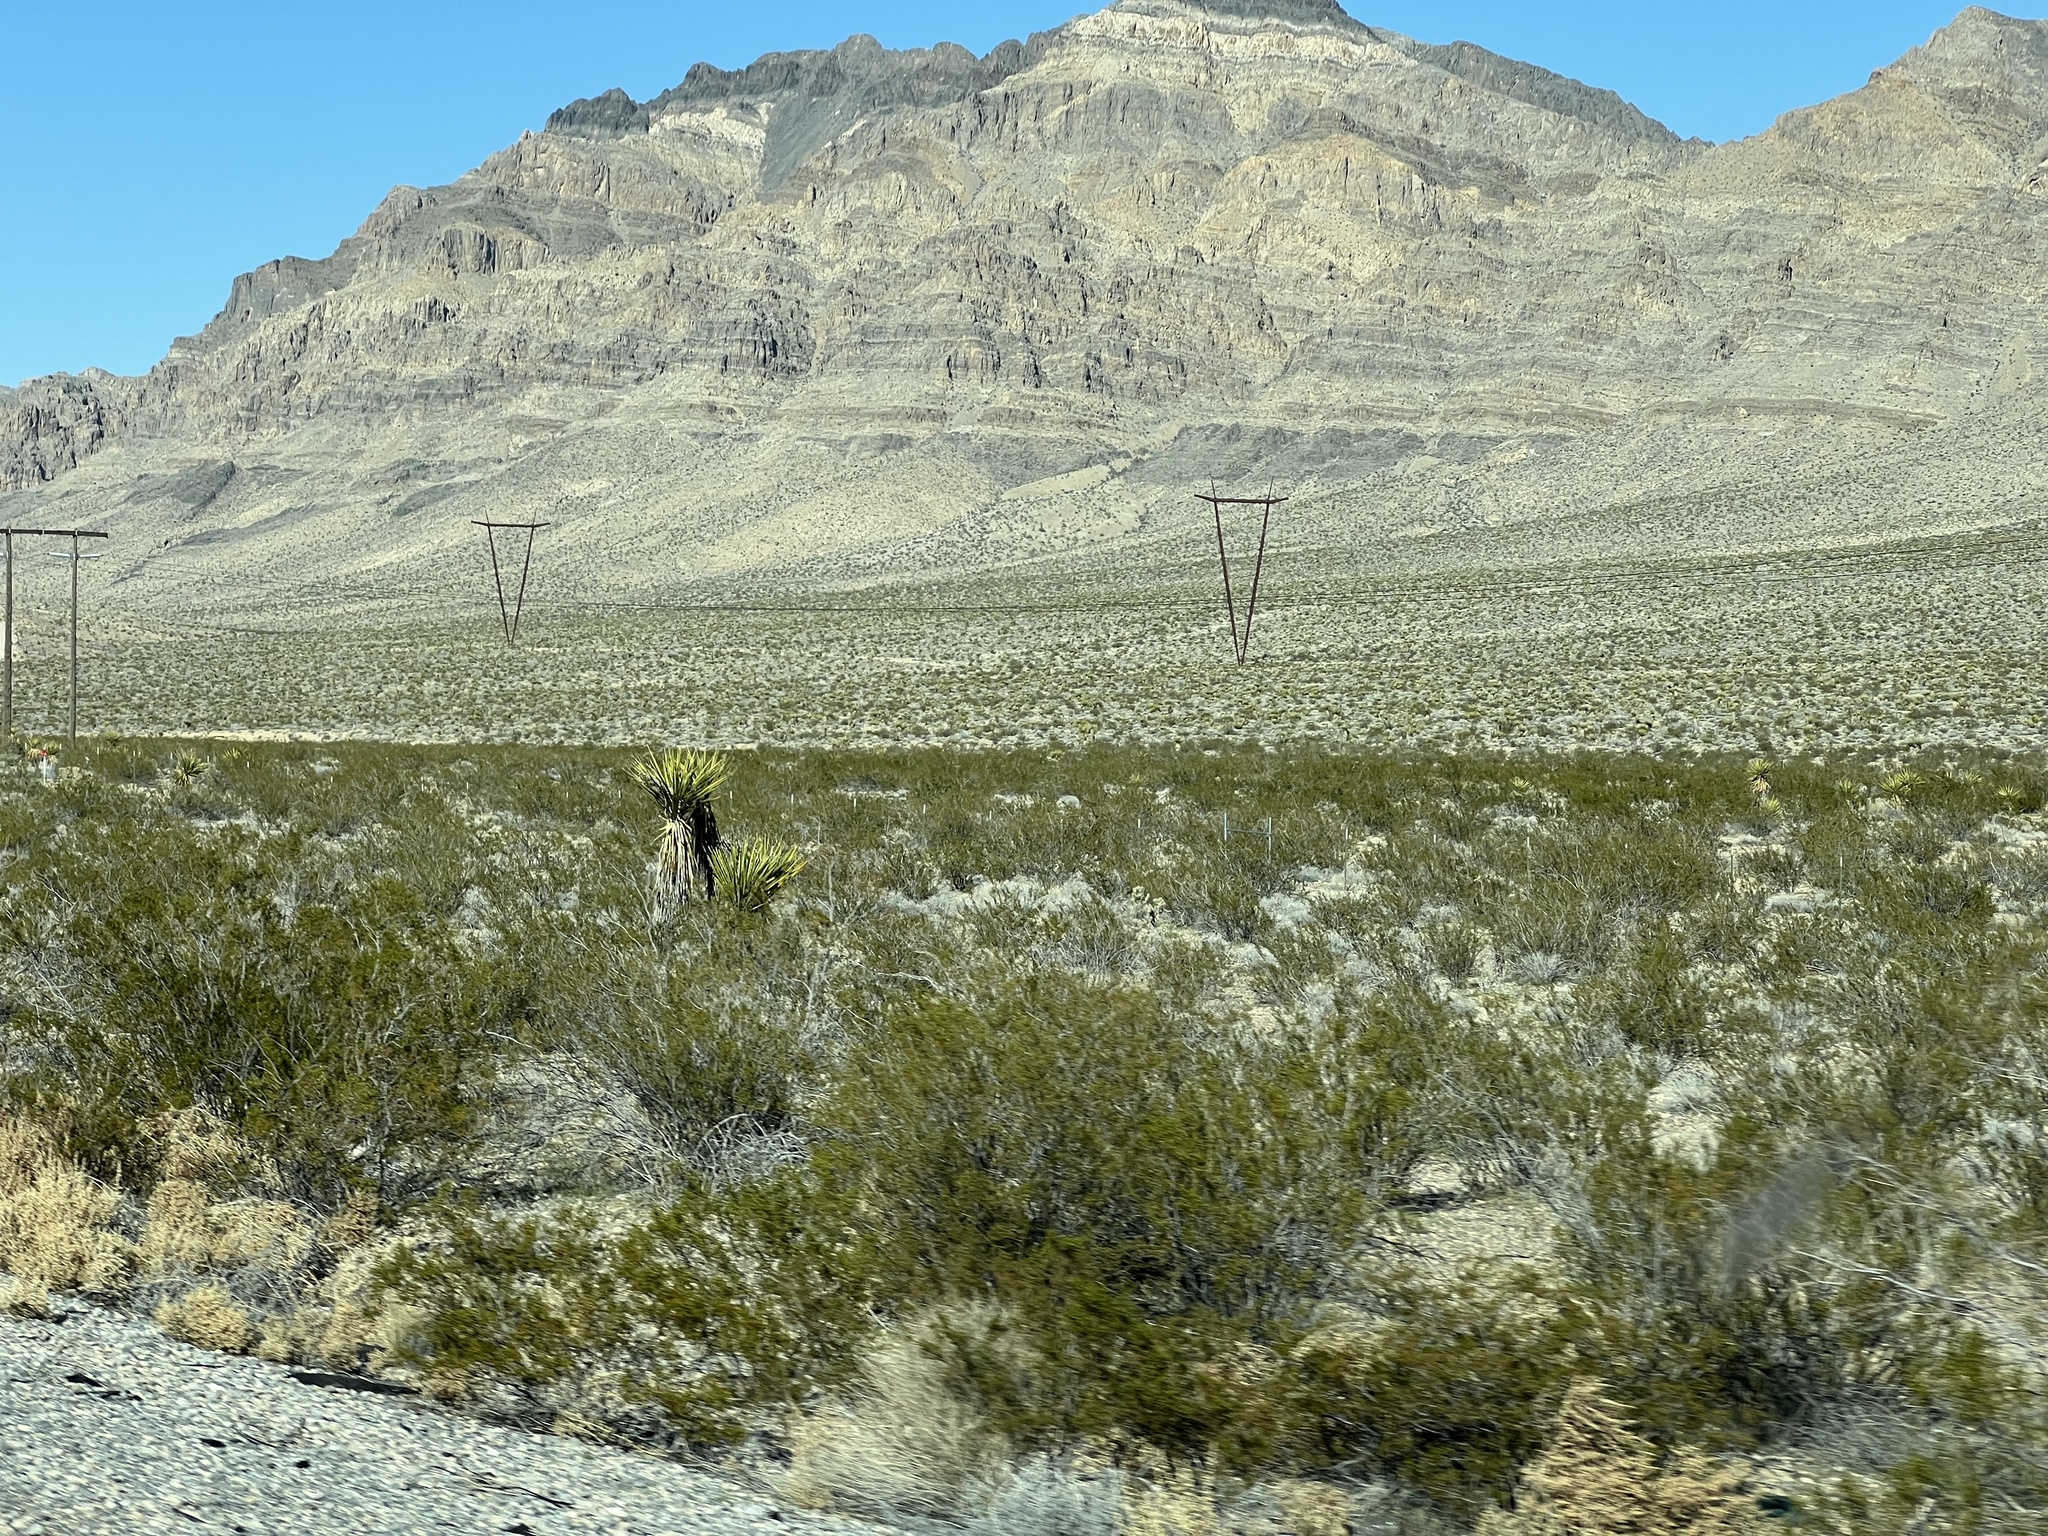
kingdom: Plantae
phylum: Tracheophyta
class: Magnoliopsida
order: Zygophyllales
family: Zygophyllaceae
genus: Larrea
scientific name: Larrea tridentata
